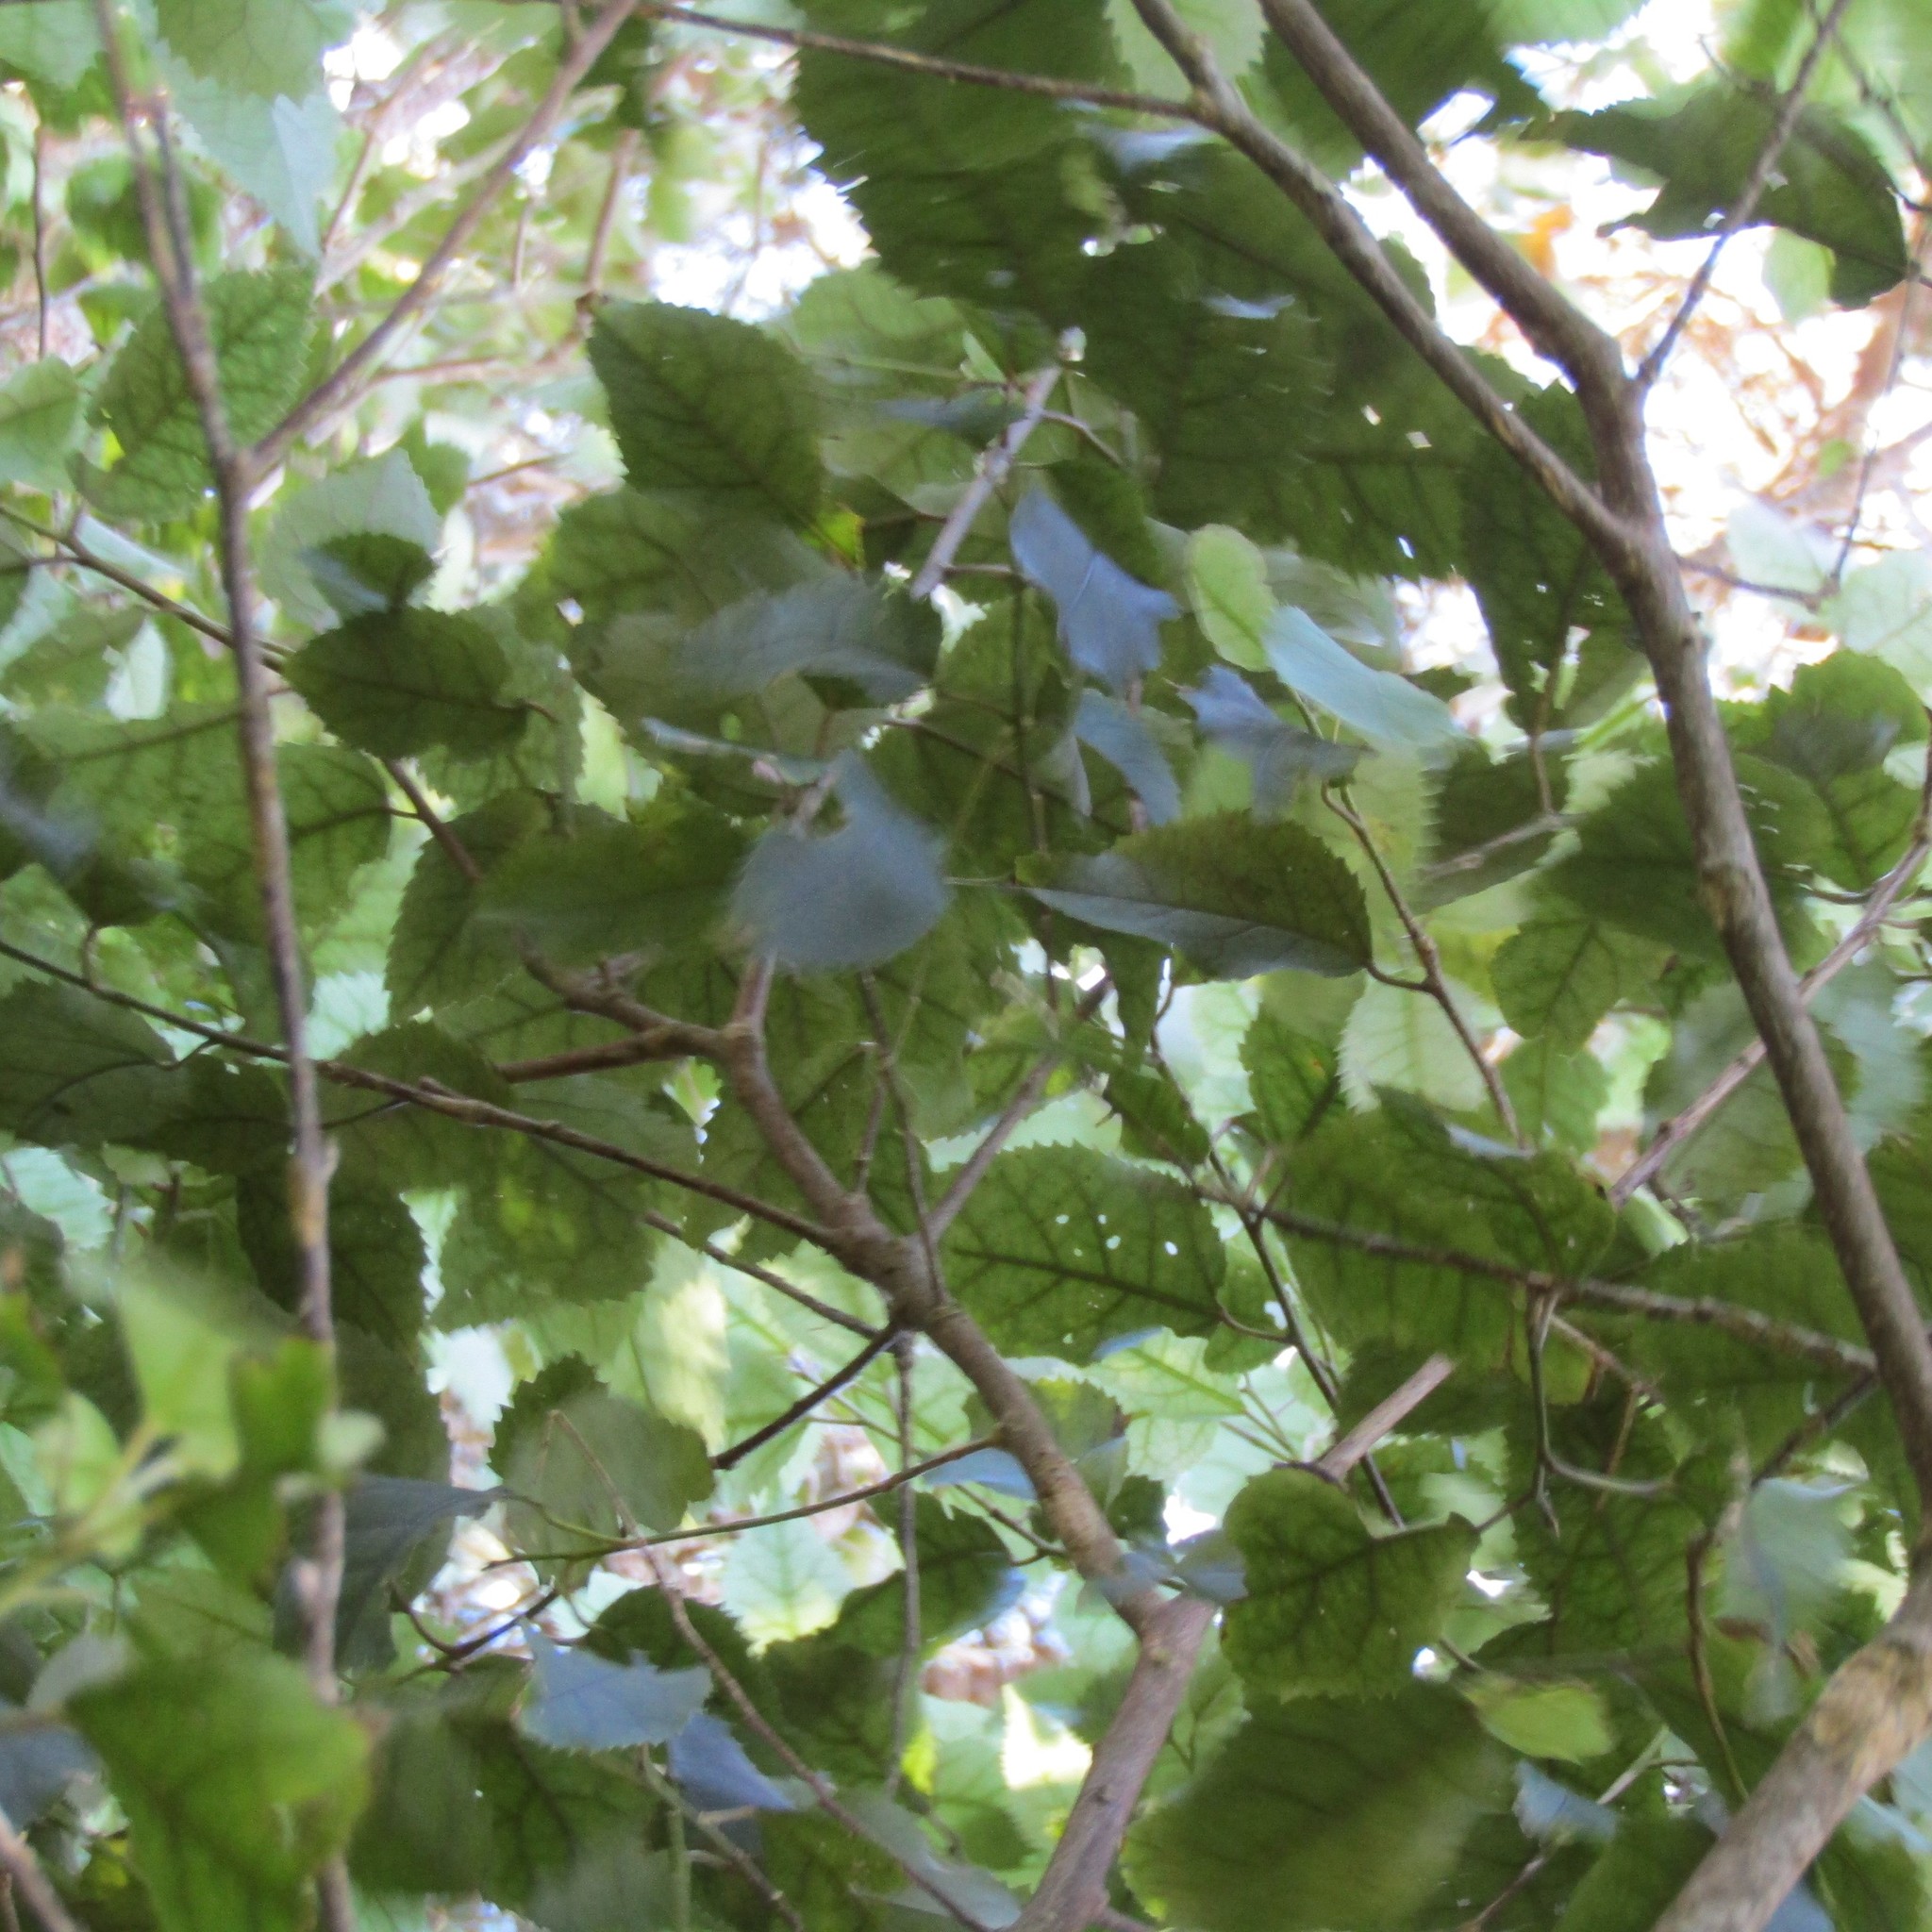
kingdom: Plantae
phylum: Tracheophyta
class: Magnoliopsida
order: Malvales
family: Malvaceae
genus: Hoheria
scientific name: Hoheria populnea
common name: Lacebark
